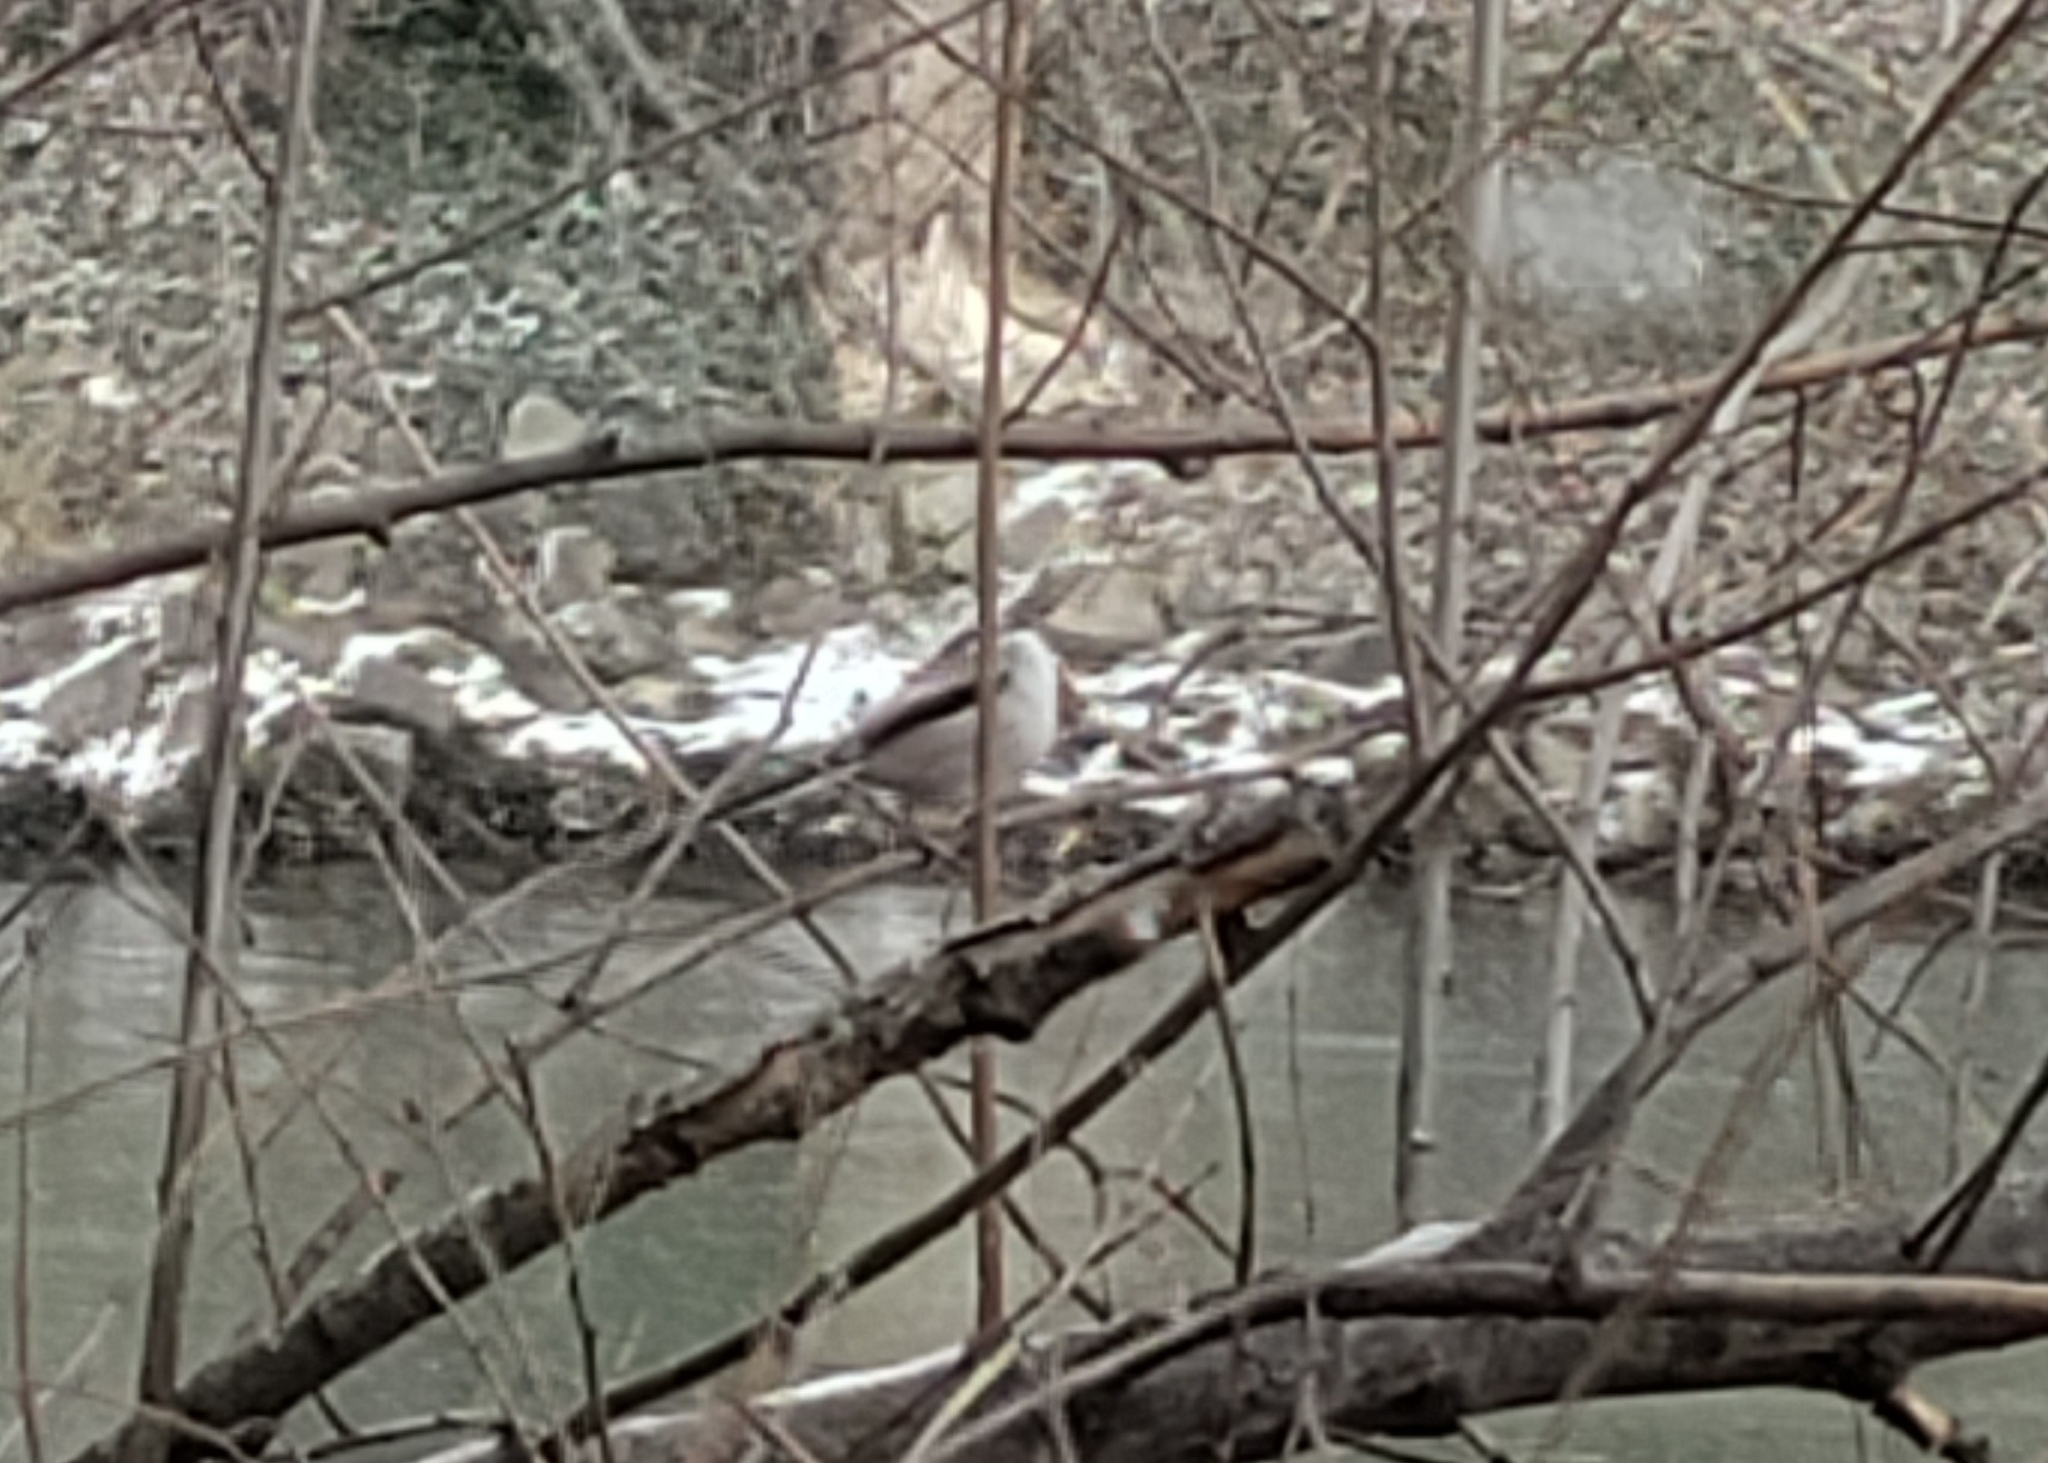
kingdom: Animalia
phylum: Chordata
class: Aves
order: Passeriformes
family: Aegithalidae
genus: Aegithalos
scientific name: Aegithalos caudatus
